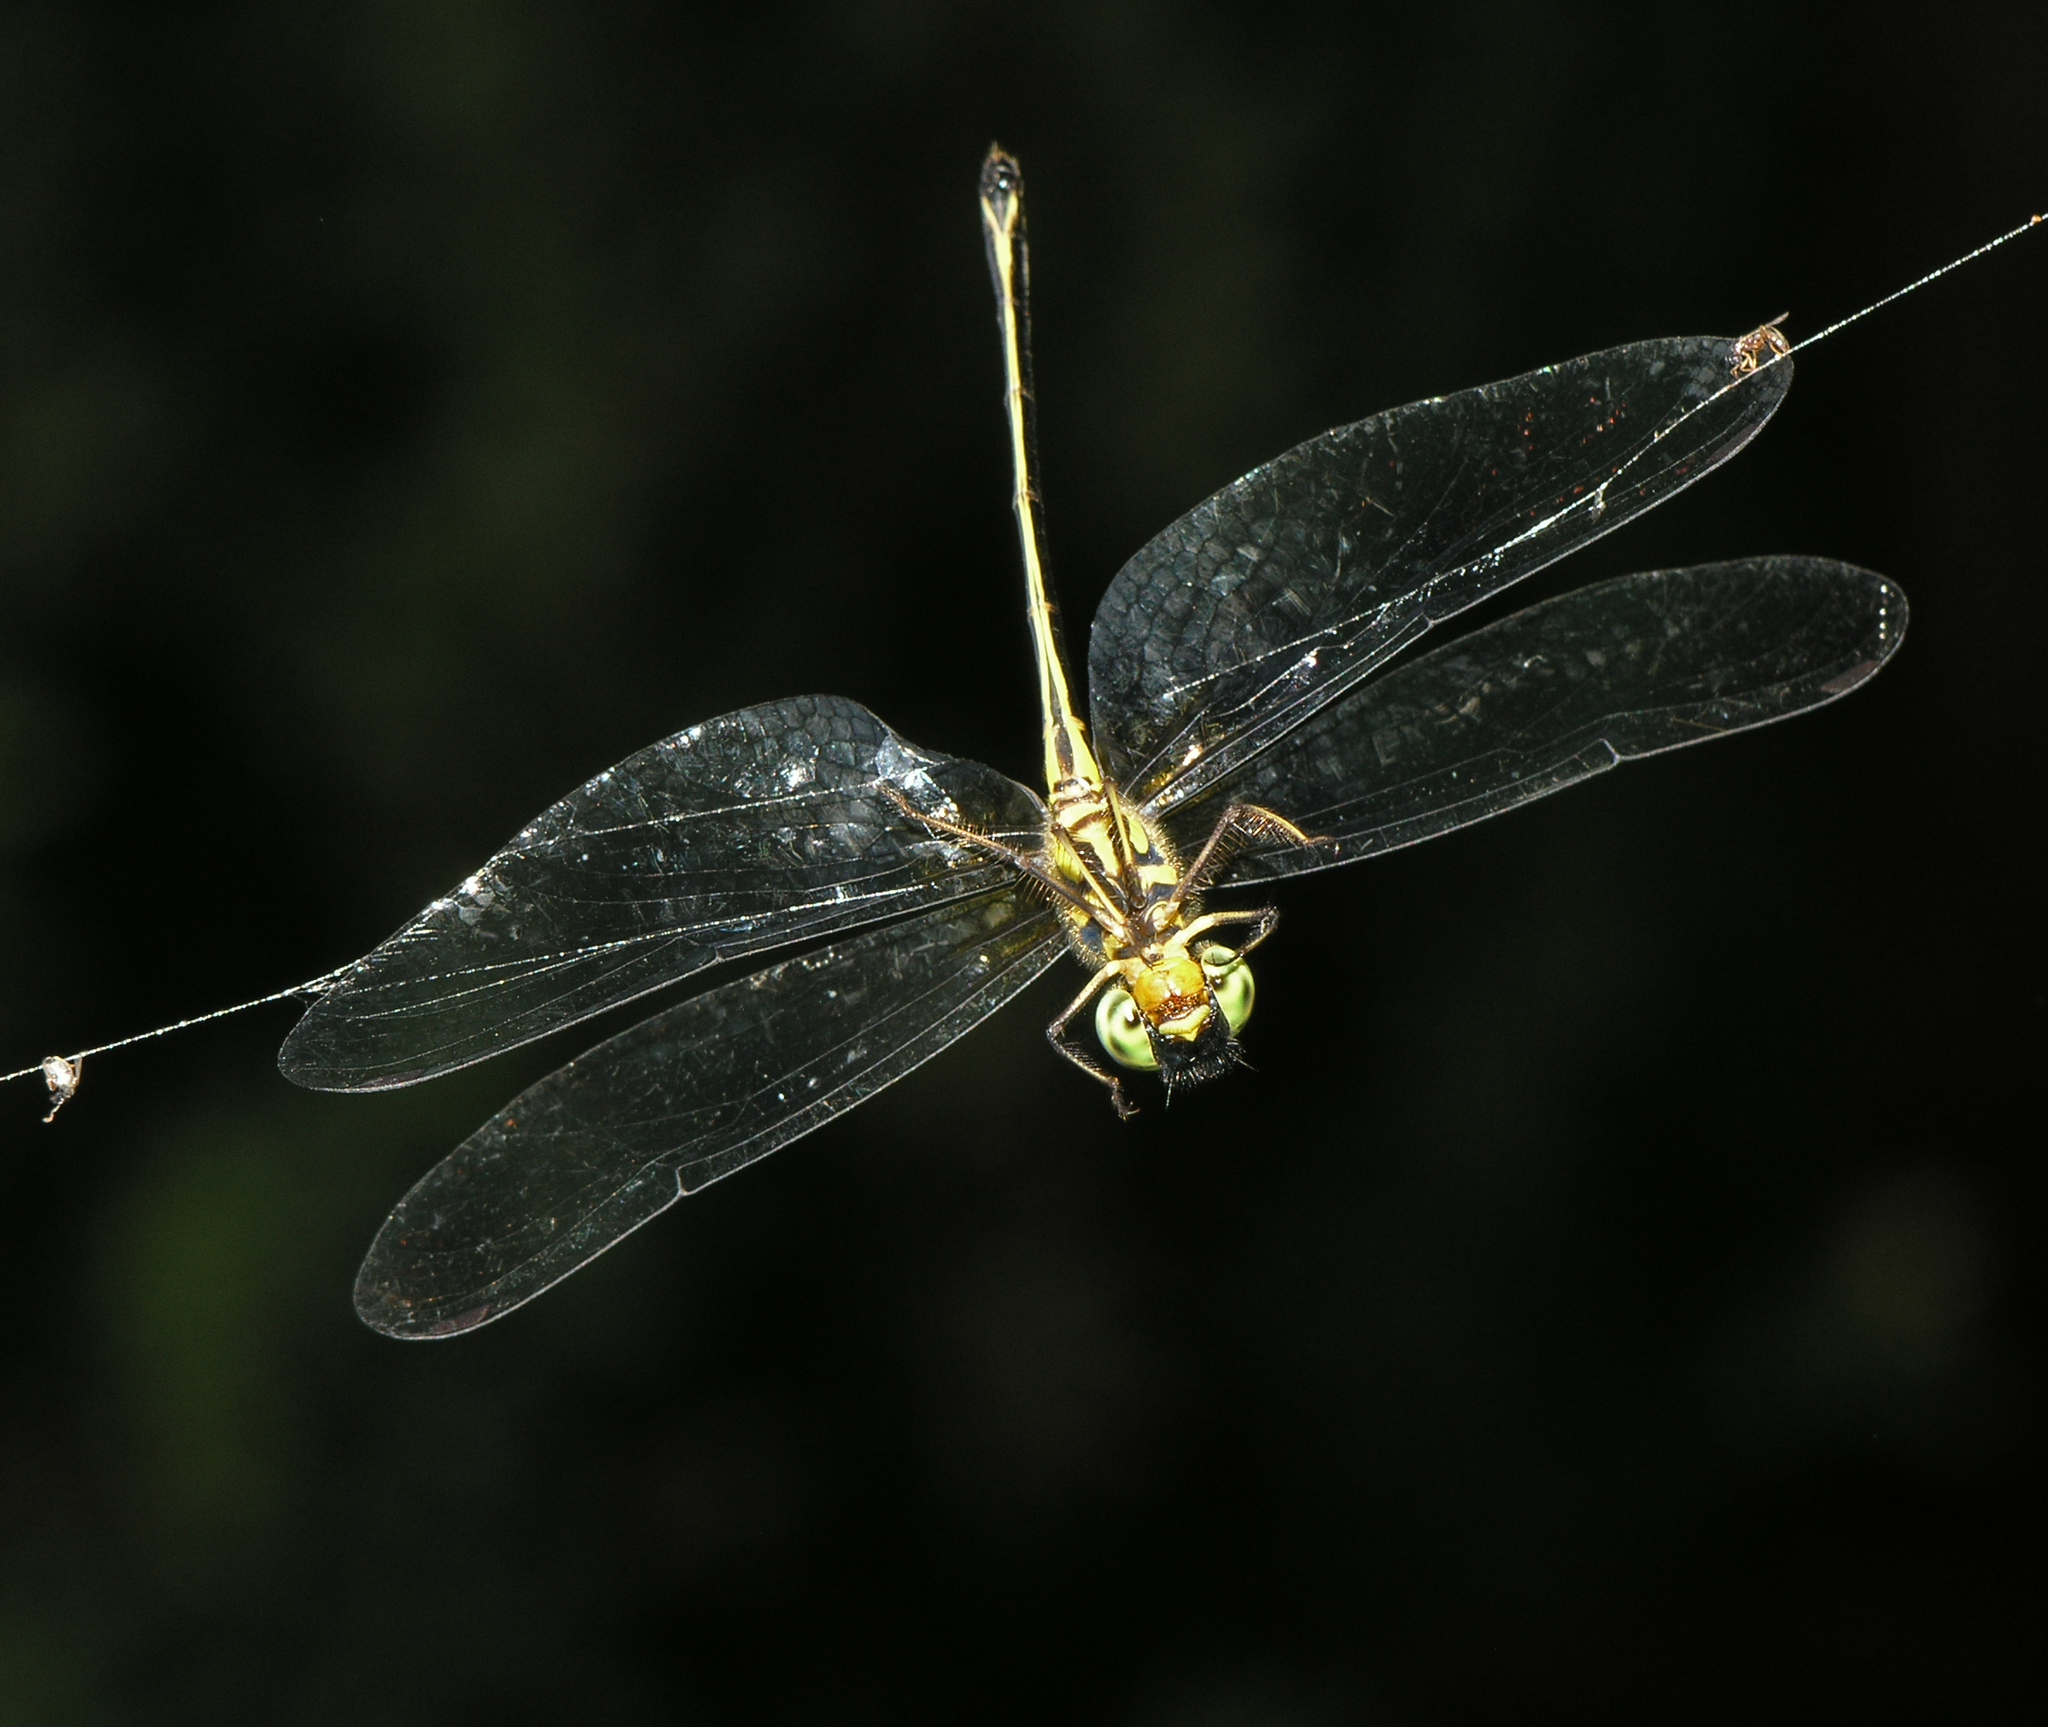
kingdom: Animalia
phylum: Arthropoda
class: Insecta
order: Odonata
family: Synthemistidae
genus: Idionyx
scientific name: Idionyx thailandicus
